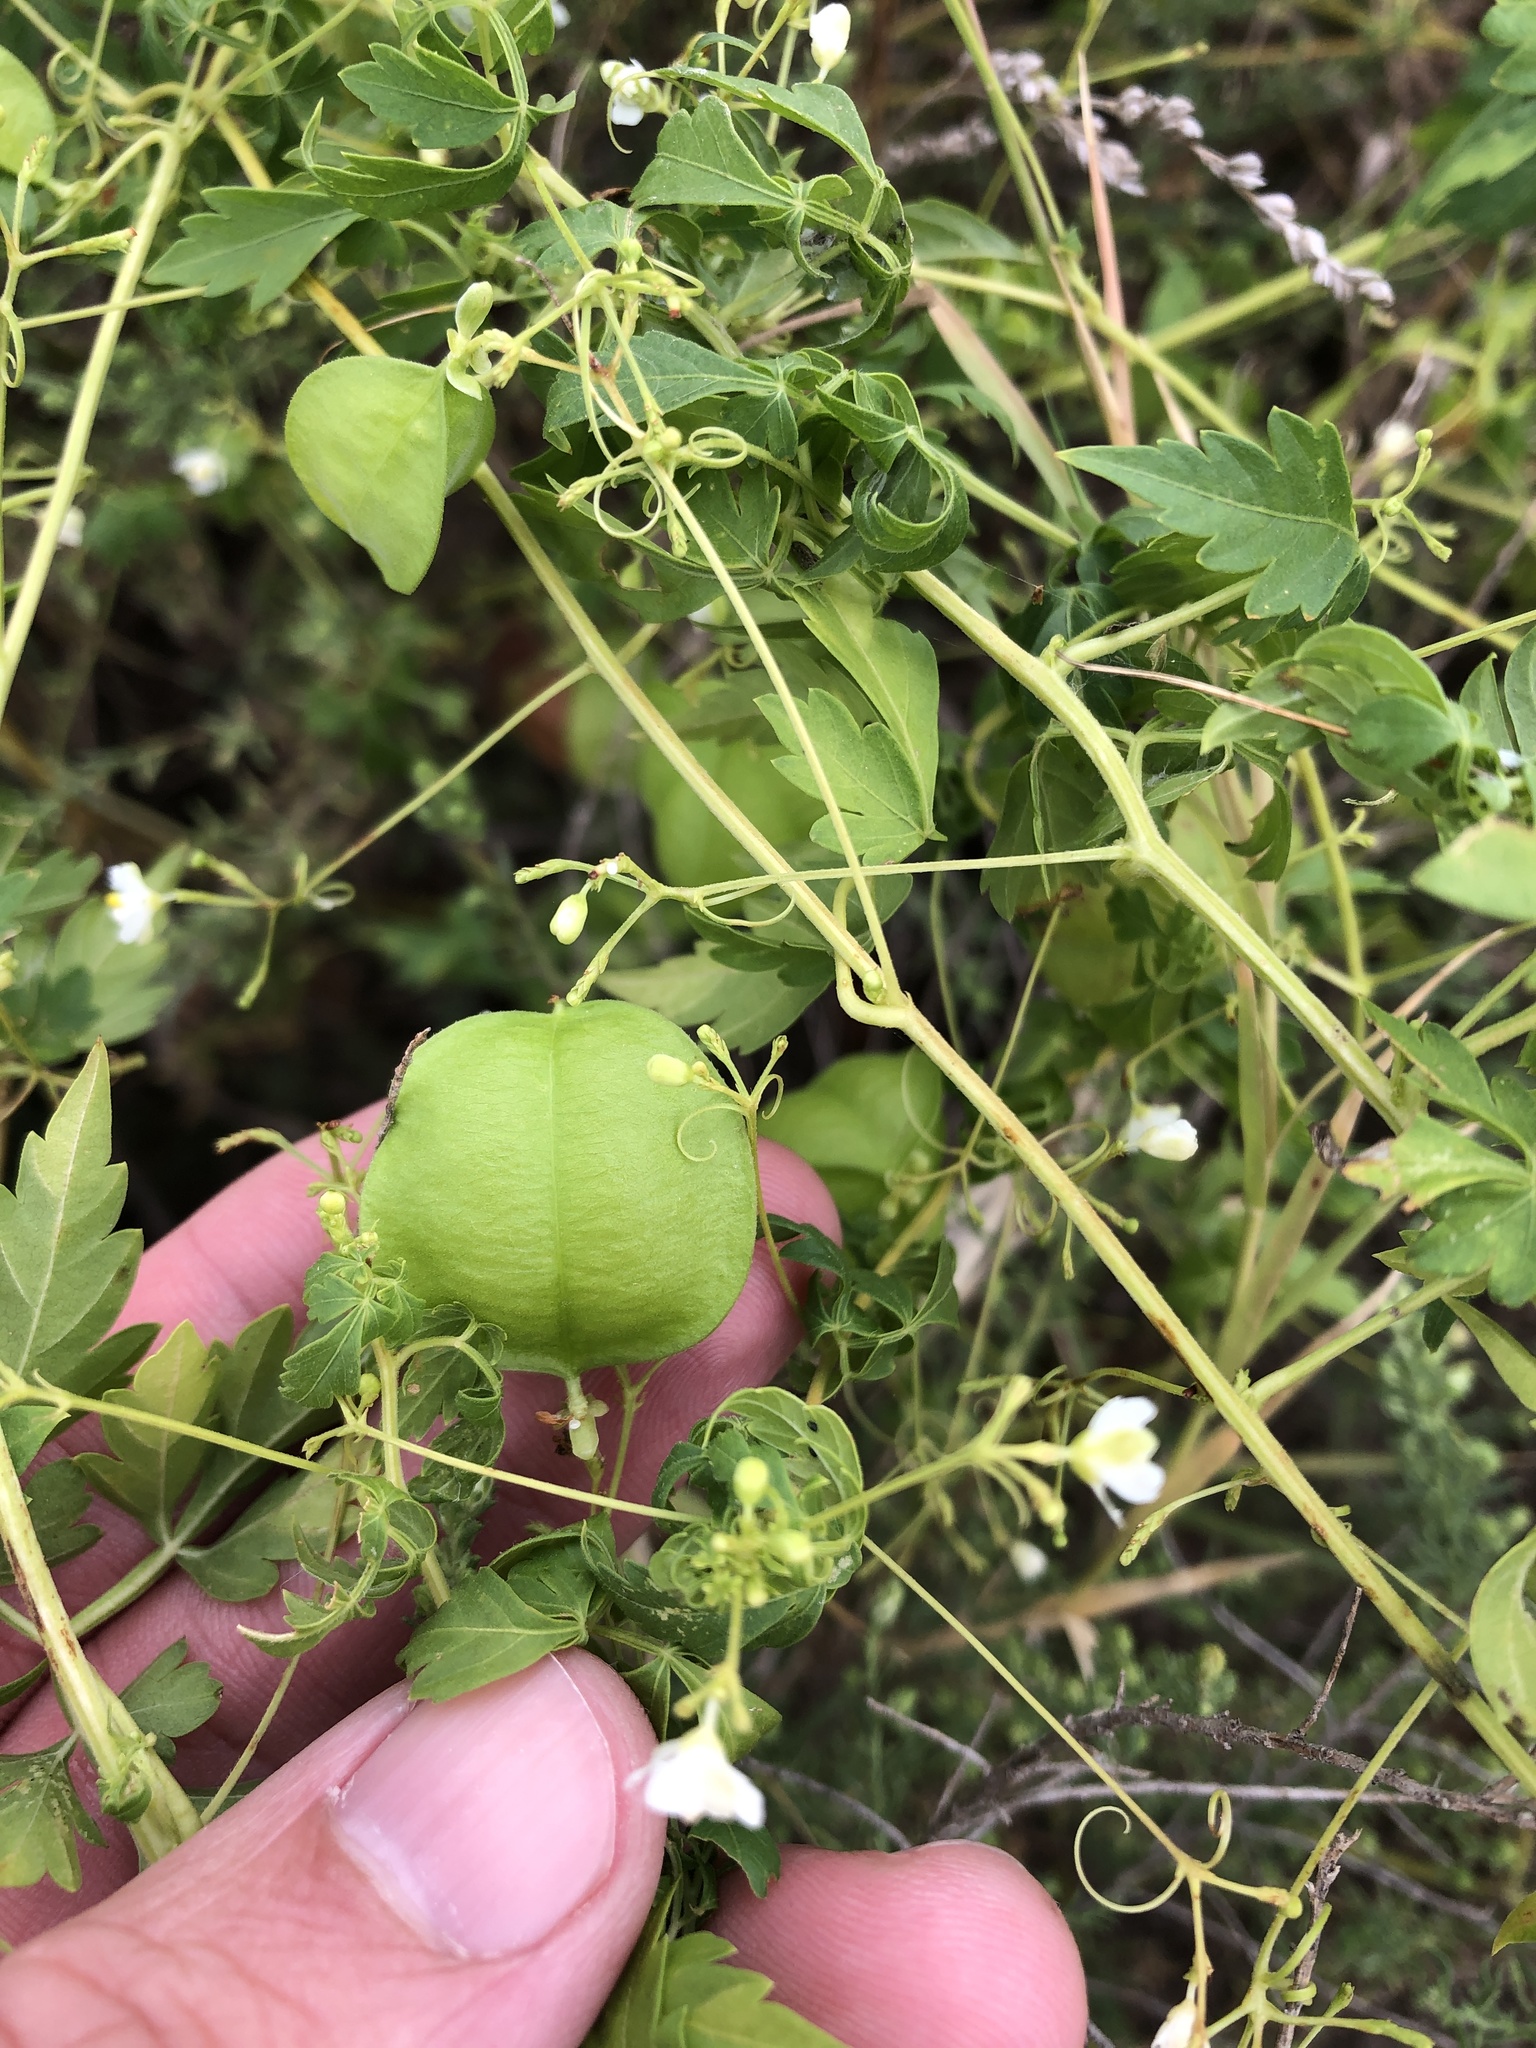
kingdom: Plantae
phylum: Tracheophyta
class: Magnoliopsida
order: Sapindales
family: Sapindaceae
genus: Cardiospermum
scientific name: Cardiospermum halicacabum
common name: Balloon vine
